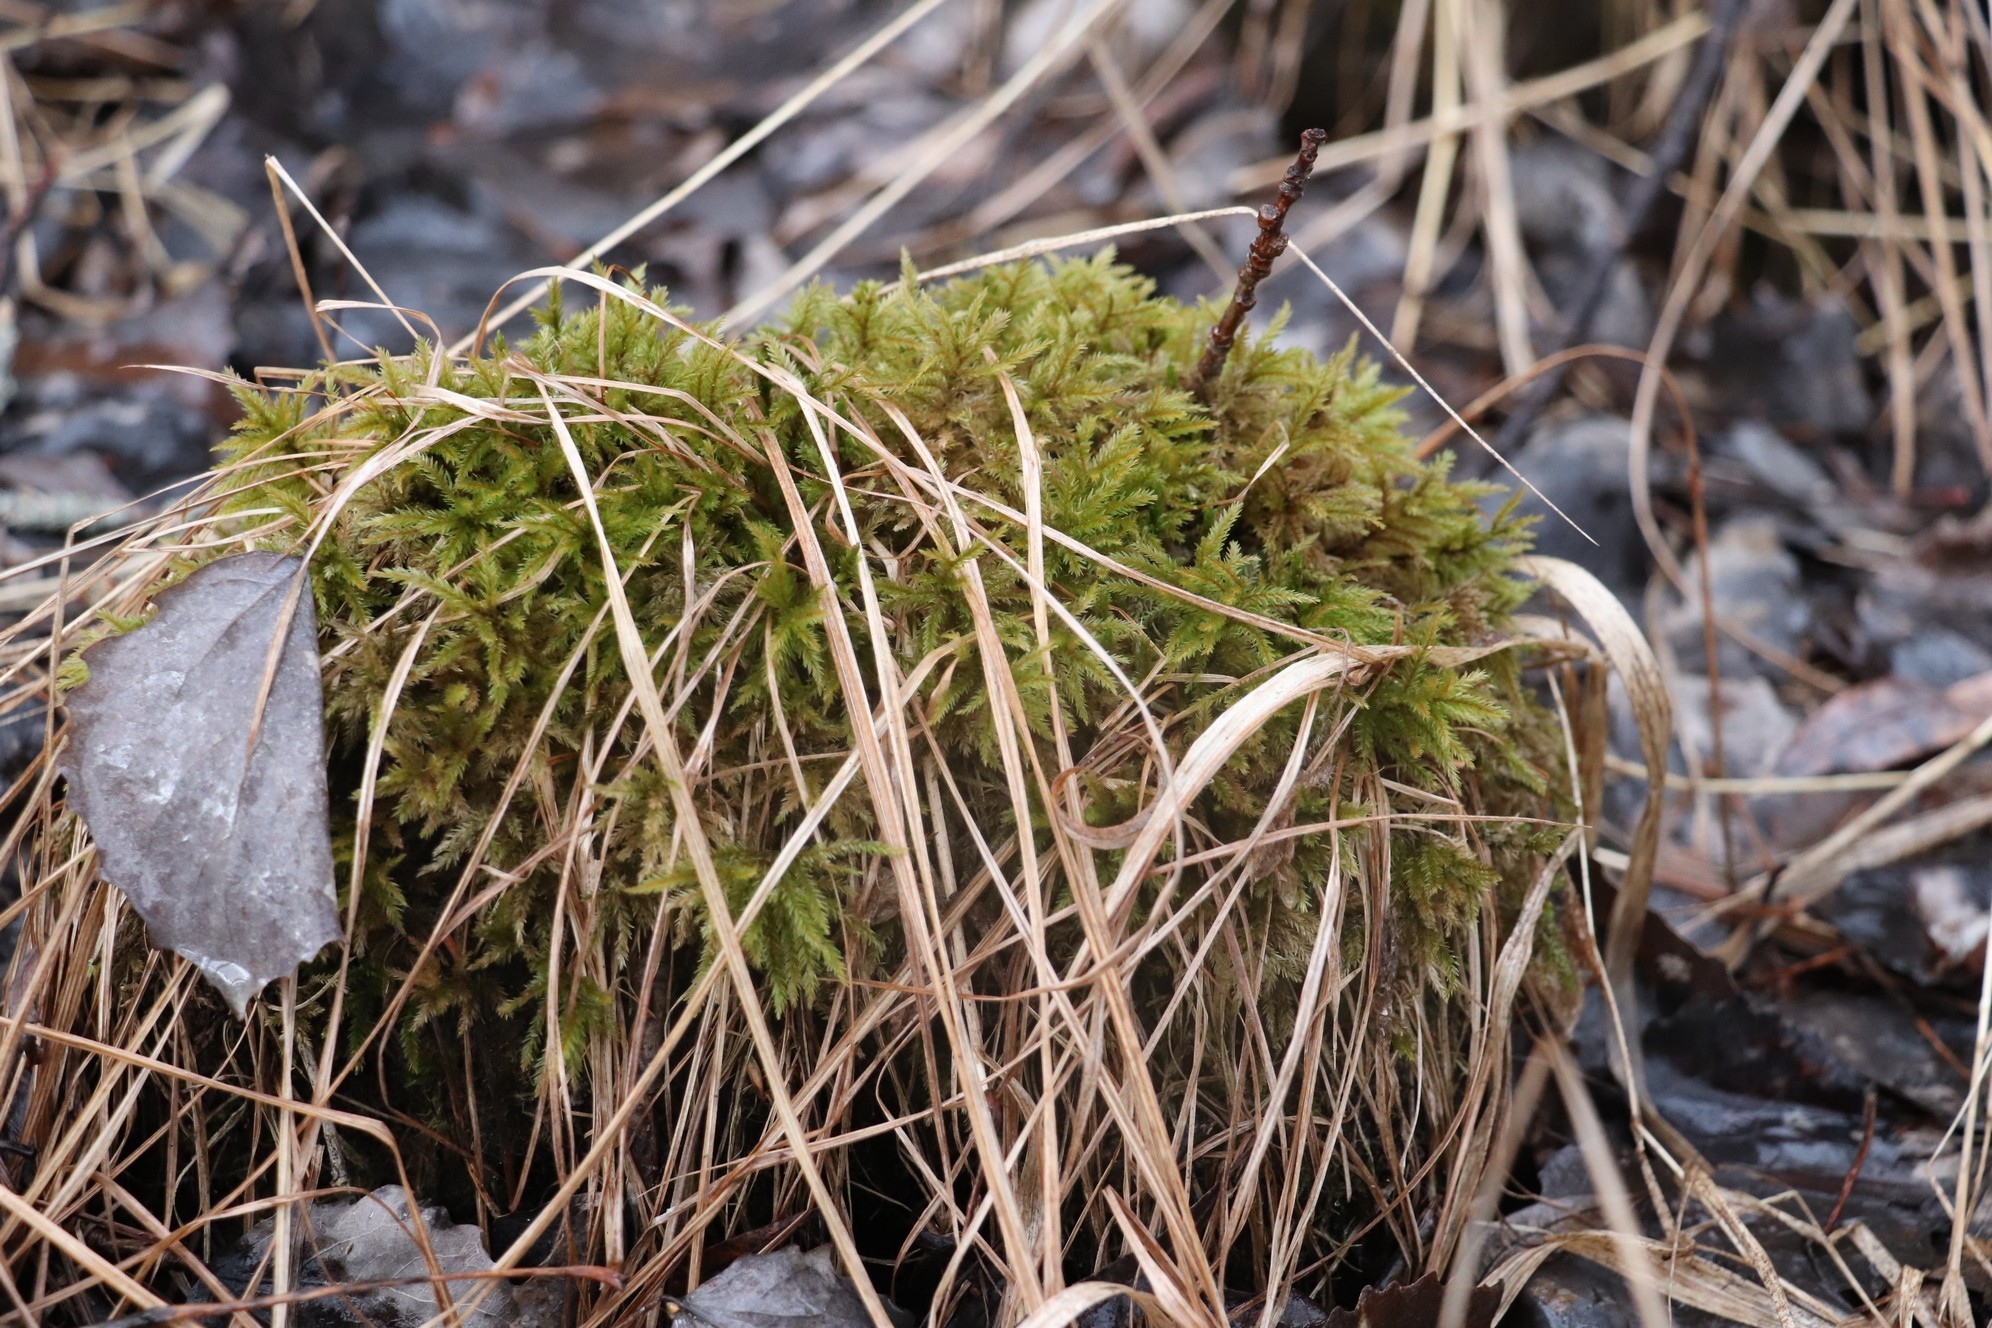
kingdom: Plantae
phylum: Bryophyta
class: Bryopsida
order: Hypnales
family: Climaciaceae
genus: Climacium
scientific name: Climacium dendroides
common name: Northern tree moss
